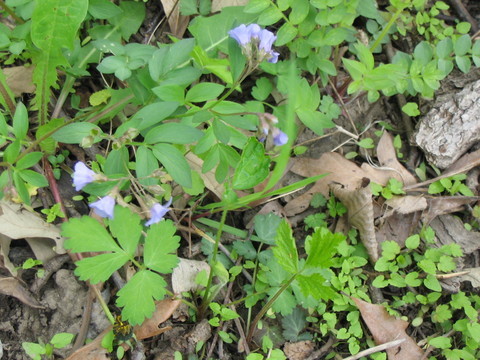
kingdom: Plantae
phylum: Tracheophyta
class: Magnoliopsida
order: Ericales
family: Polemoniaceae
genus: Polemonium
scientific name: Polemonium reptans
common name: Creeping jacob's-ladder
